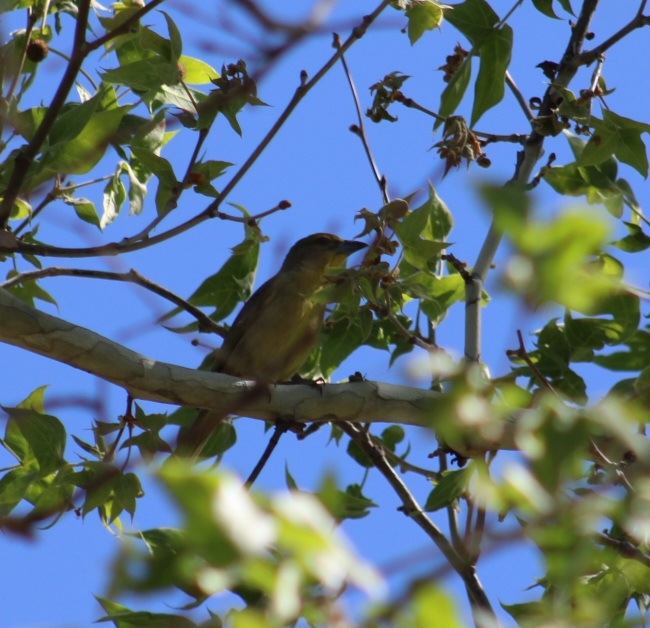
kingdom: Animalia
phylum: Chordata
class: Aves
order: Passeriformes
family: Cardinalidae
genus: Piranga
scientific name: Piranga flava
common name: Red tanager
